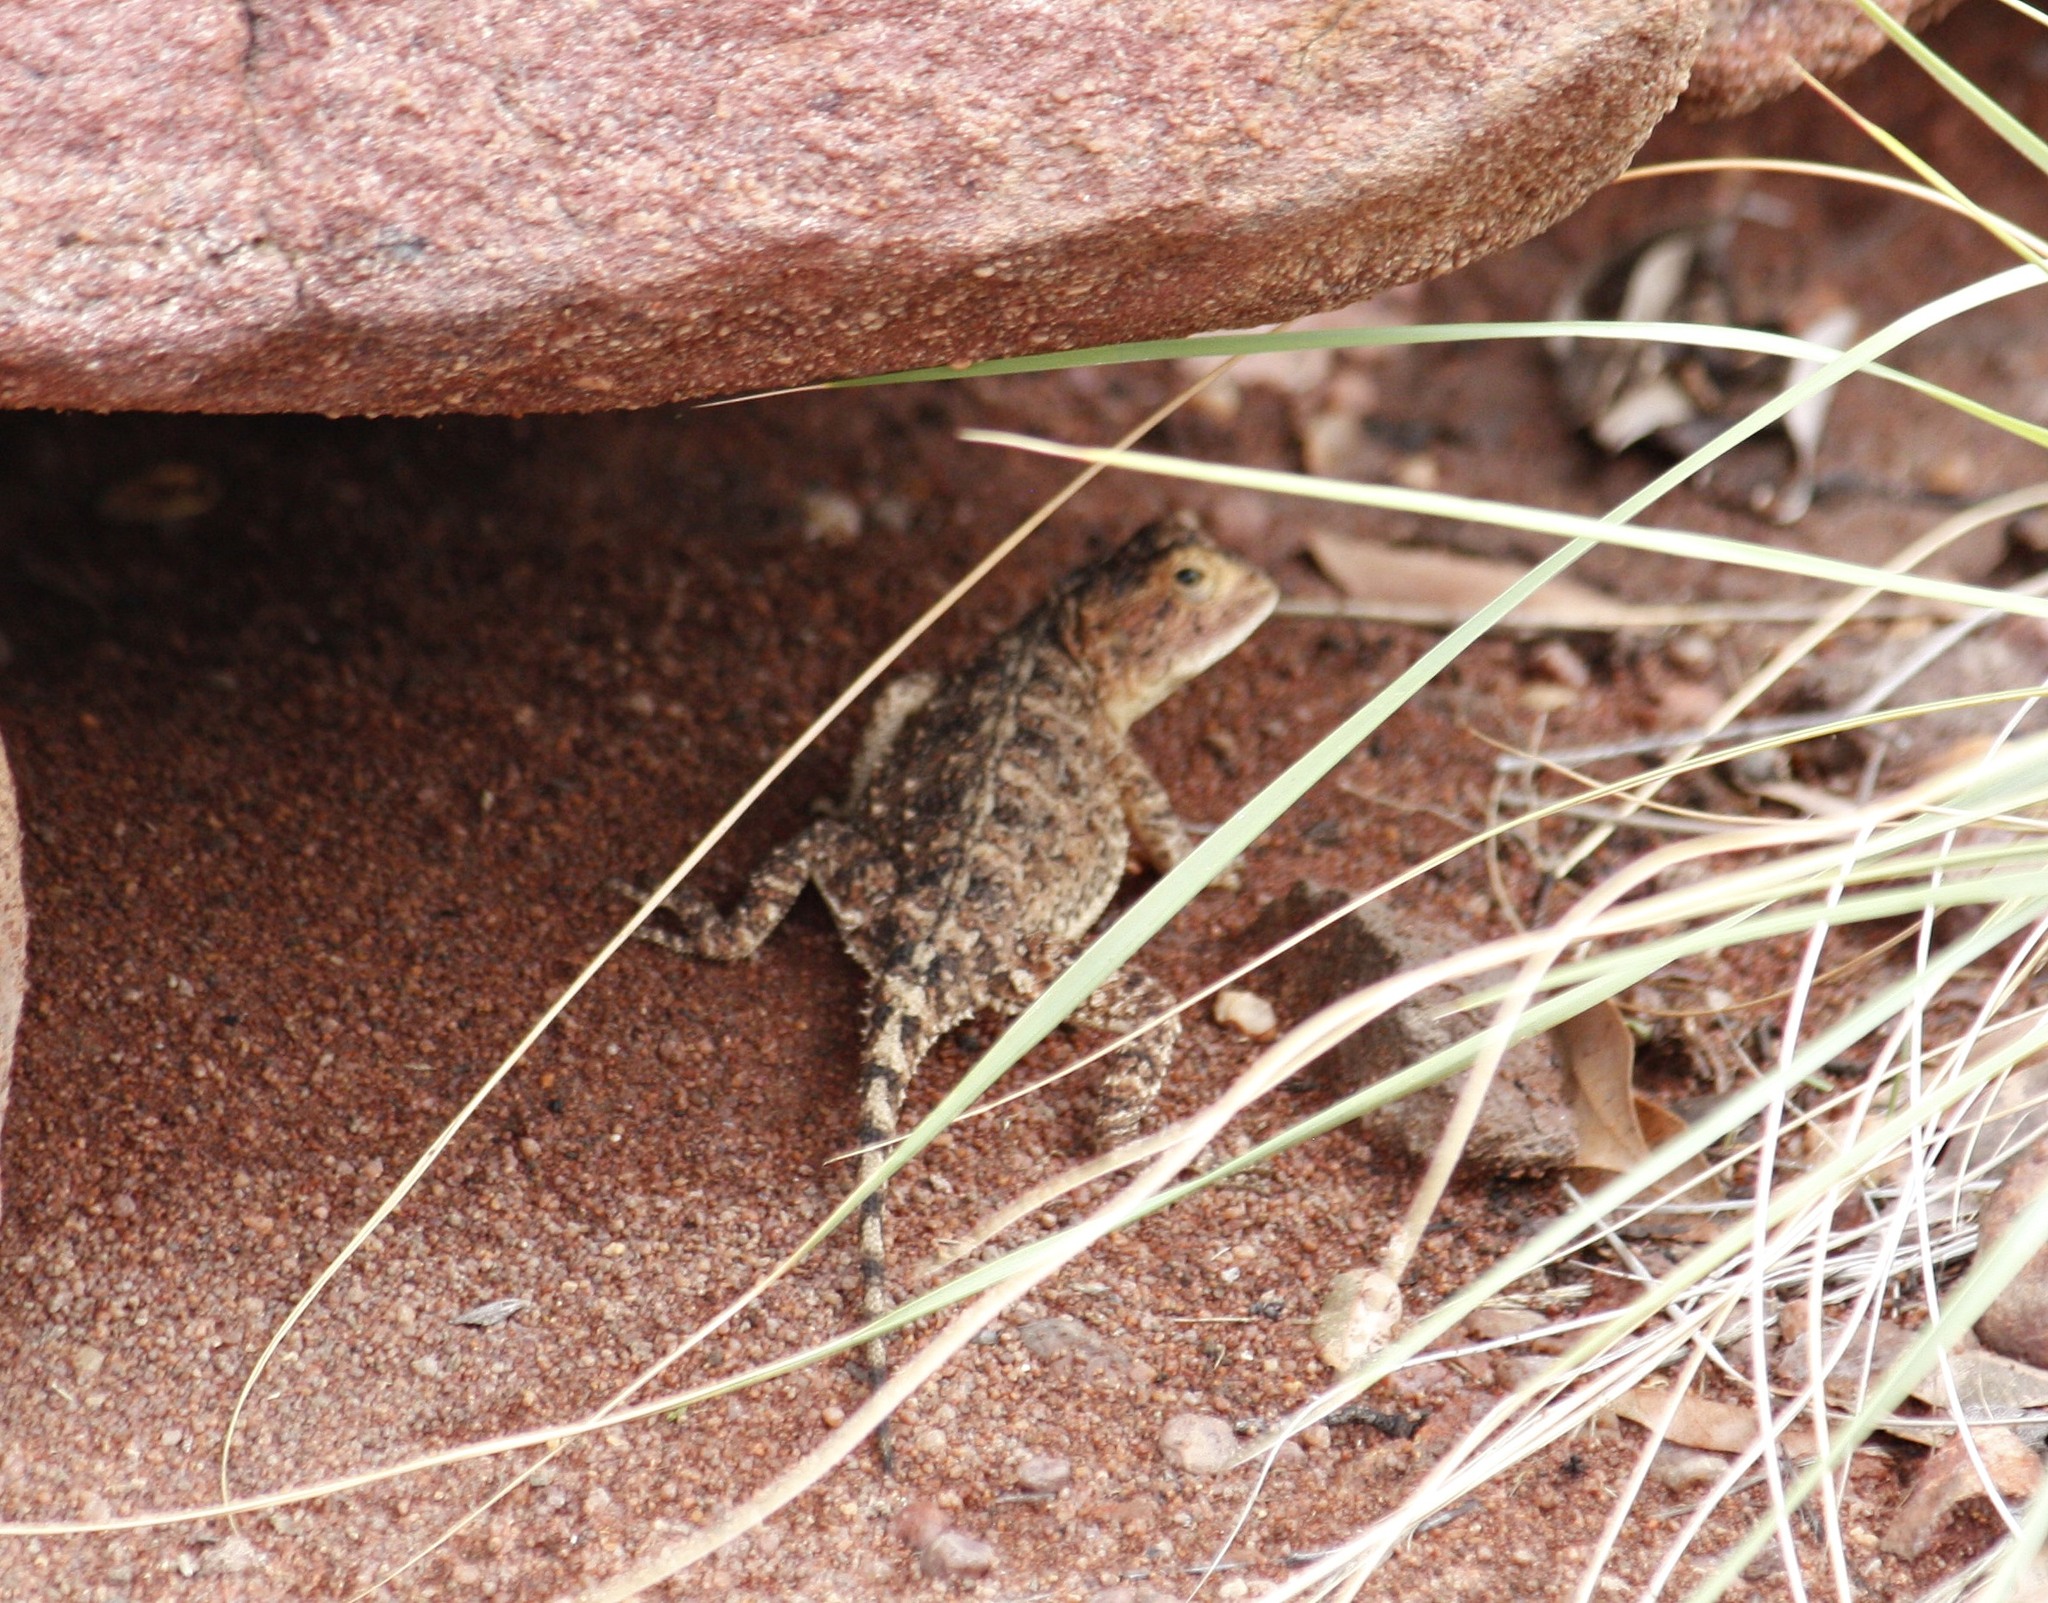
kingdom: Animalia
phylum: Chordata
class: Squamata
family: Agamidae
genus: Agama
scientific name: Agama aculeata
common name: Common ground agama
